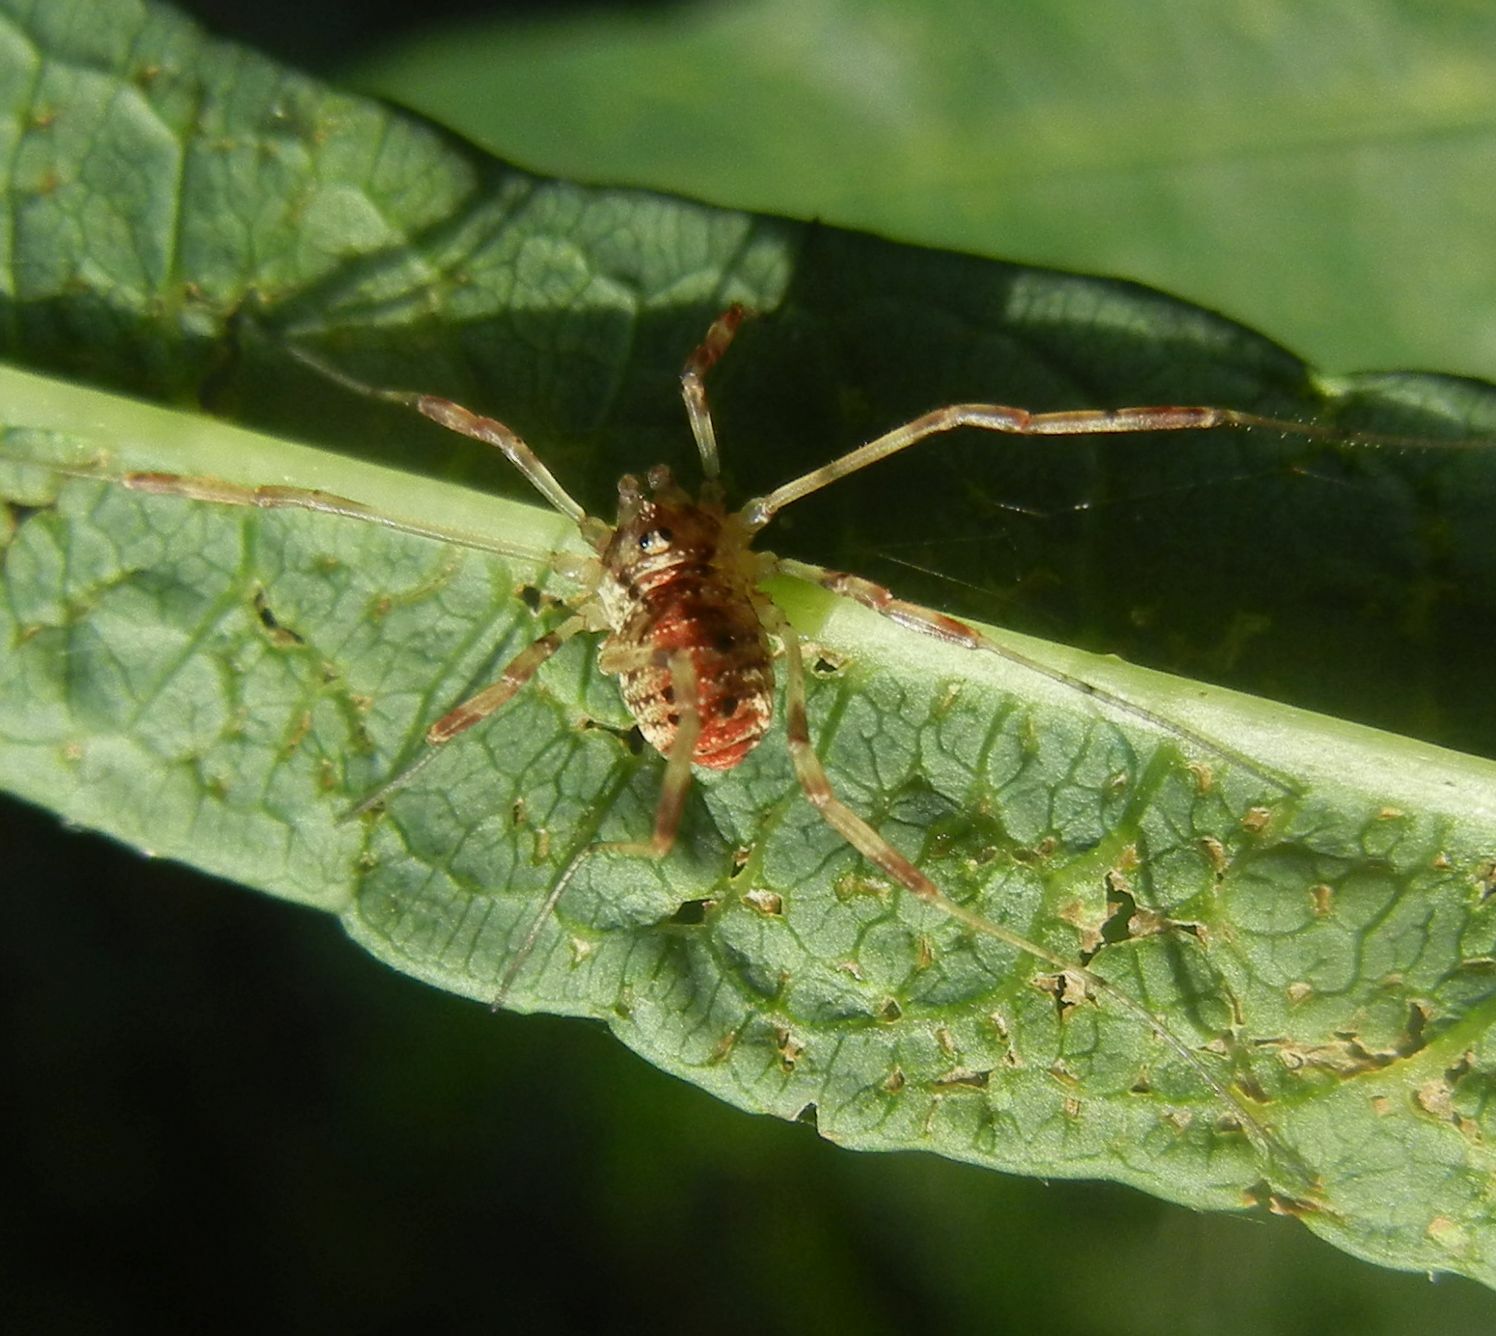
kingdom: Animalia
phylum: Arthropoda
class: Arachnida
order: Opiliones
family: Phalangiidae
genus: Paroligolophus
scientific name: Paroligolophus agrestis
